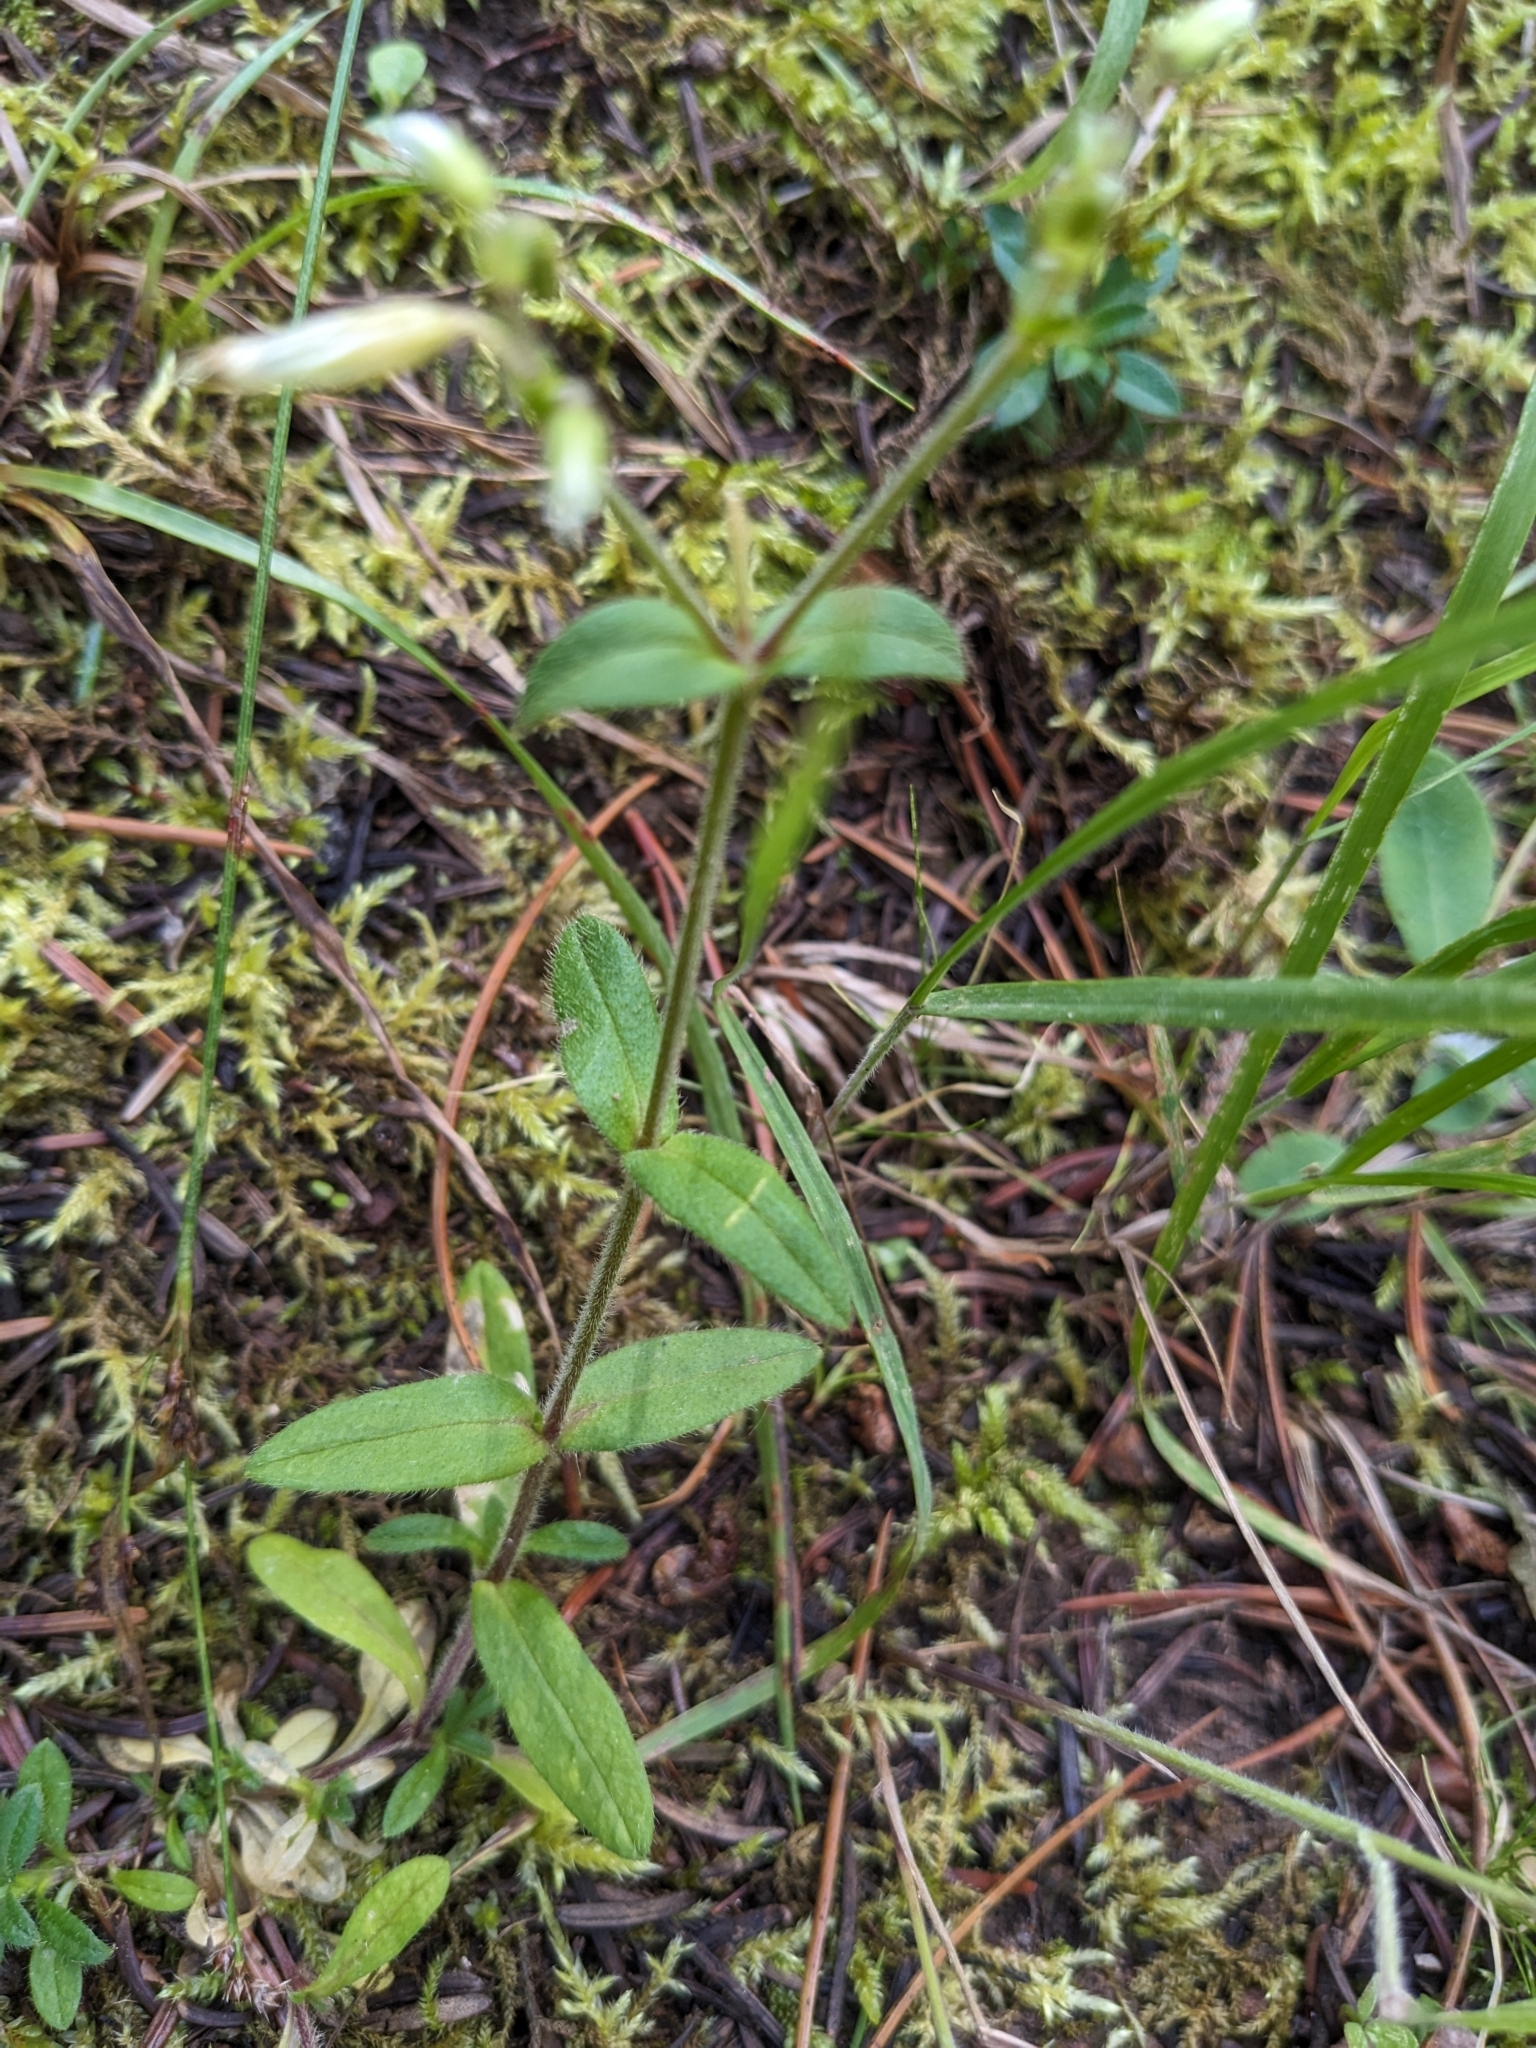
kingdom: Plantae
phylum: Tracheophyta
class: Magnoliopsida
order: Caryophyllales
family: Caryophyllaceae
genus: Silene
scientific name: Silene latifolia
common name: White campion
